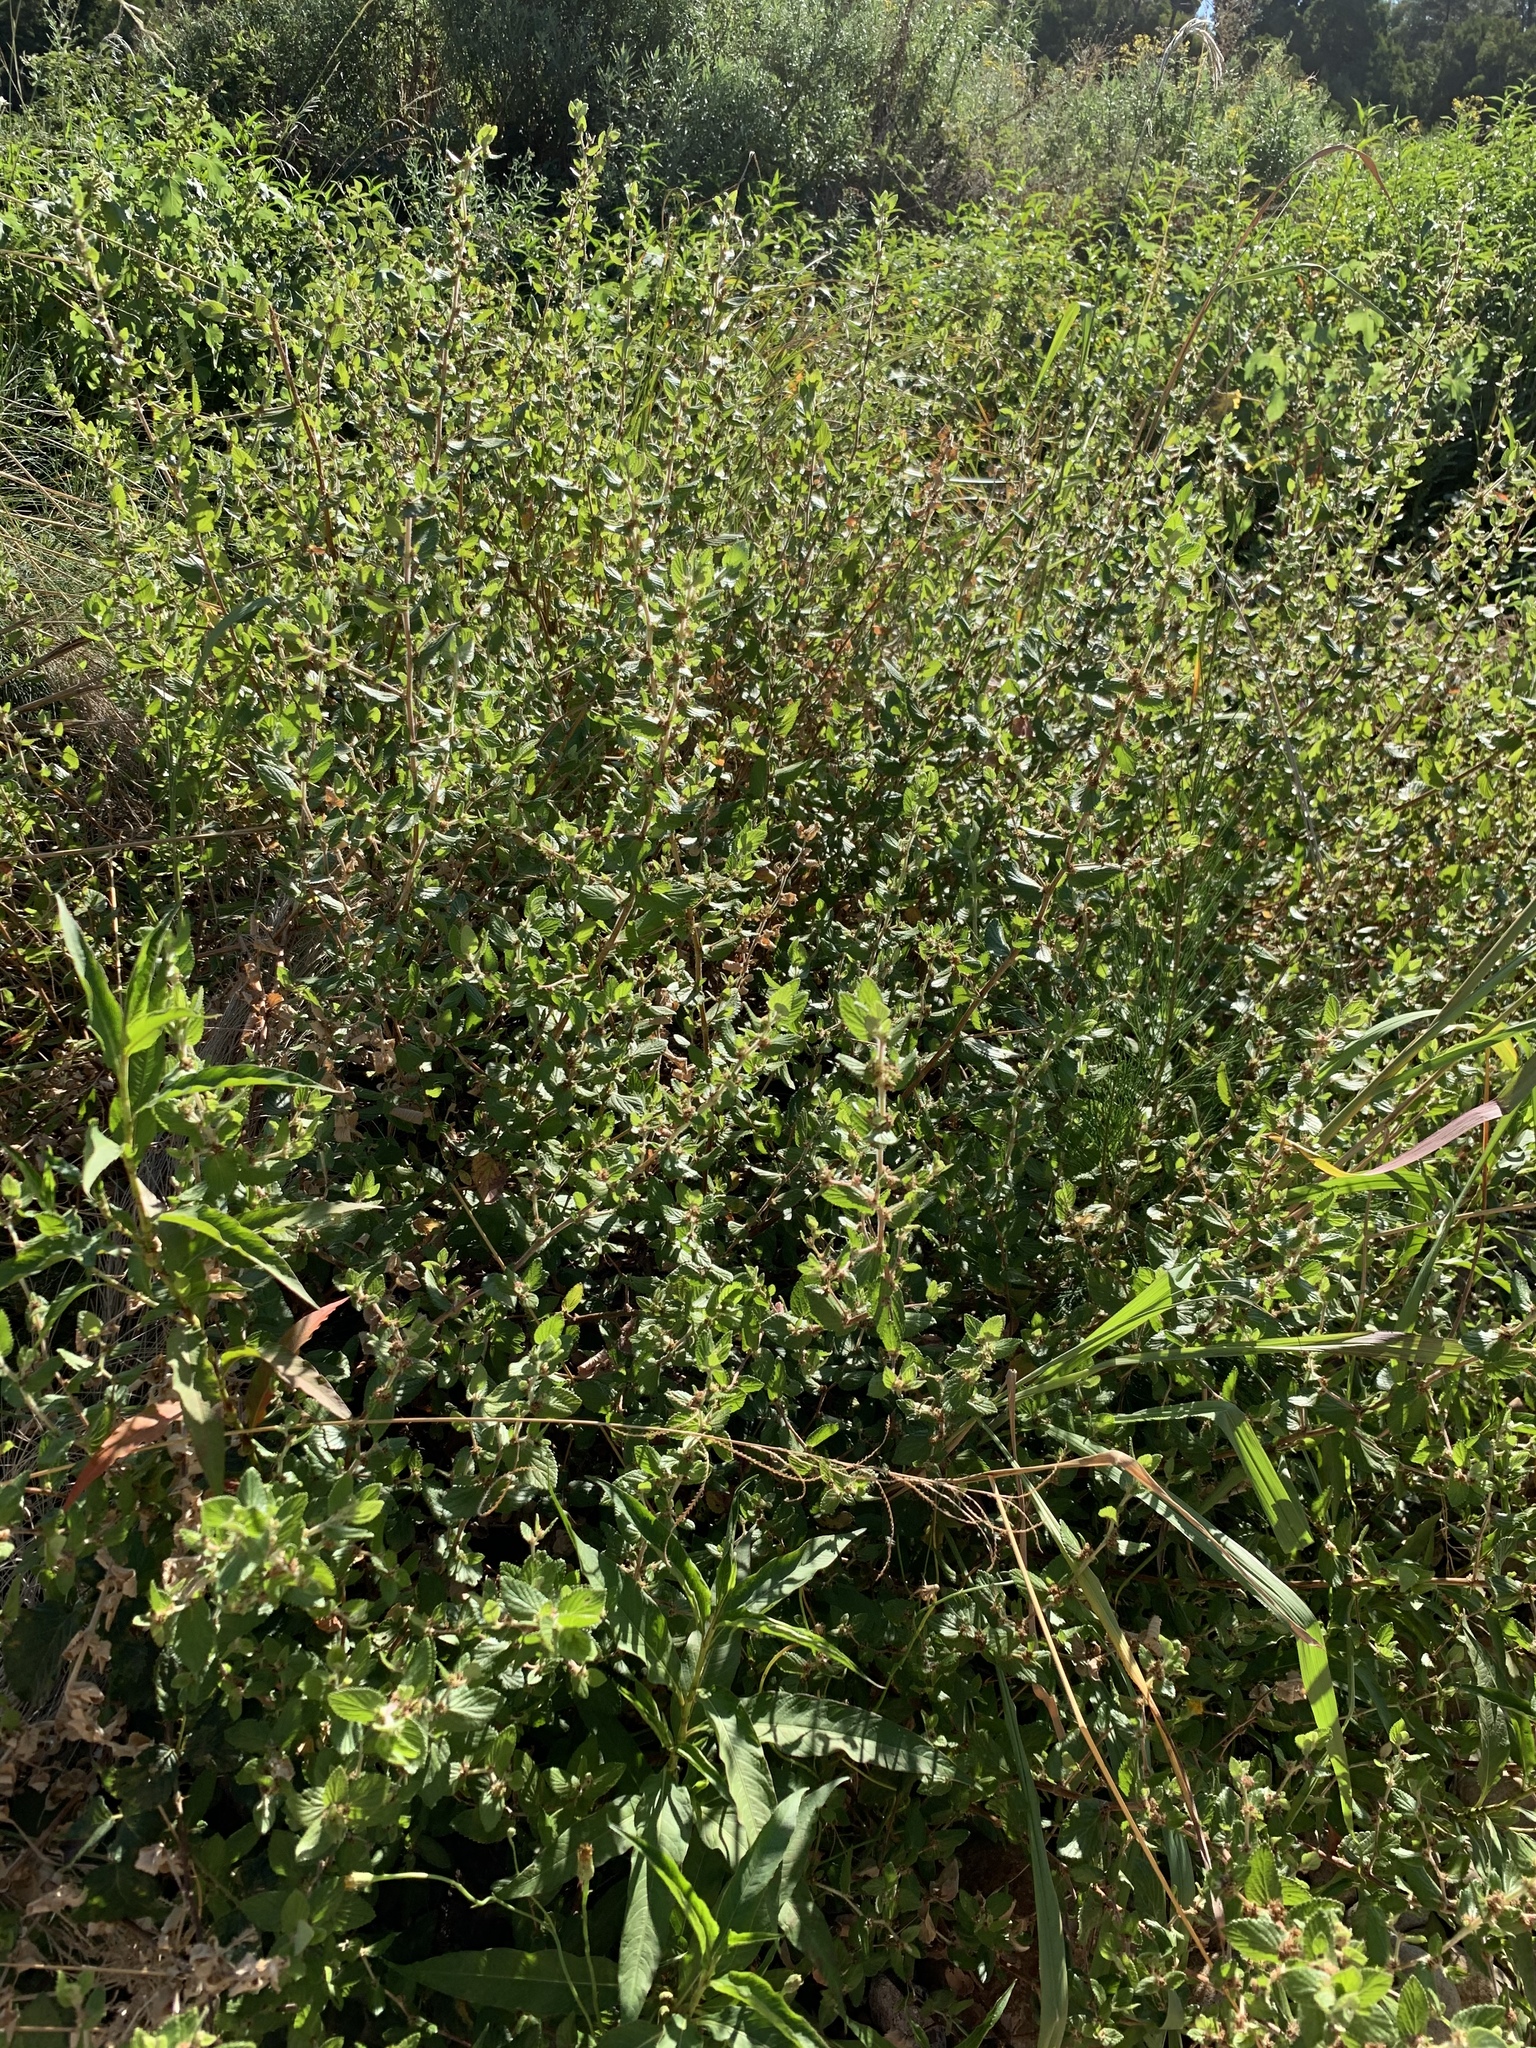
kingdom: Plantae
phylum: Tracheophyta
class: Magnoliopsida
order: Rosales
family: Rosaceae
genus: Cliffortia
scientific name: Cliffortia odorata
